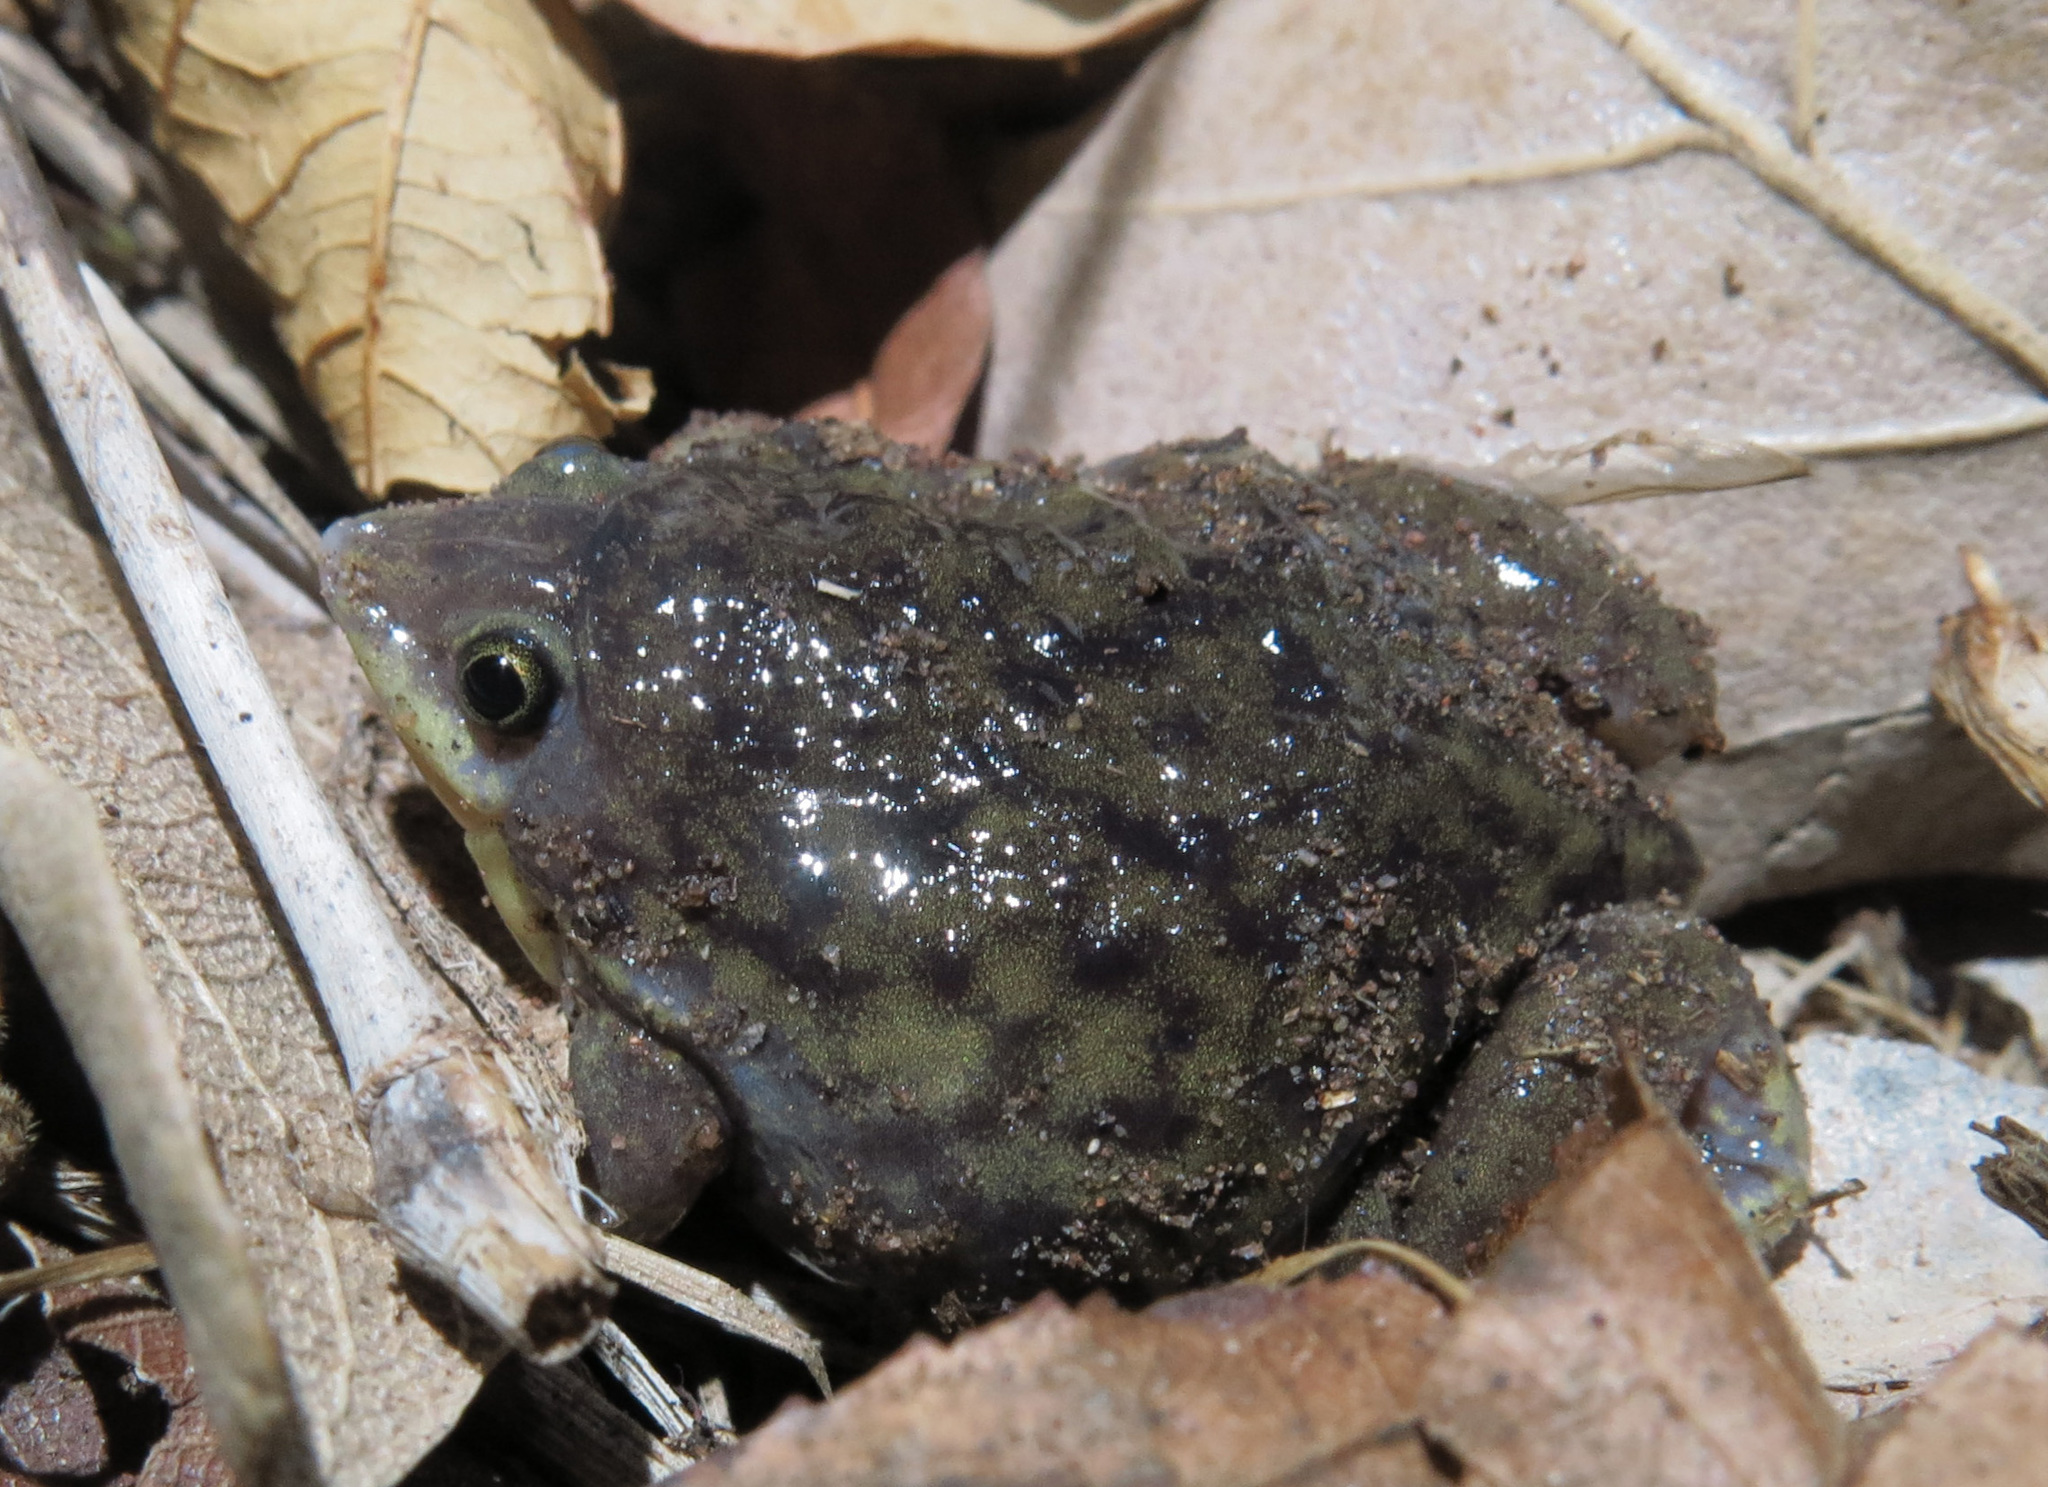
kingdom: Animalia
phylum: Chordata
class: Amphibia
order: Anura
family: Hemisotidae
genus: Hemisus
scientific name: Hemisus marmoratus
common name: Mottled shovel-nosed frog
